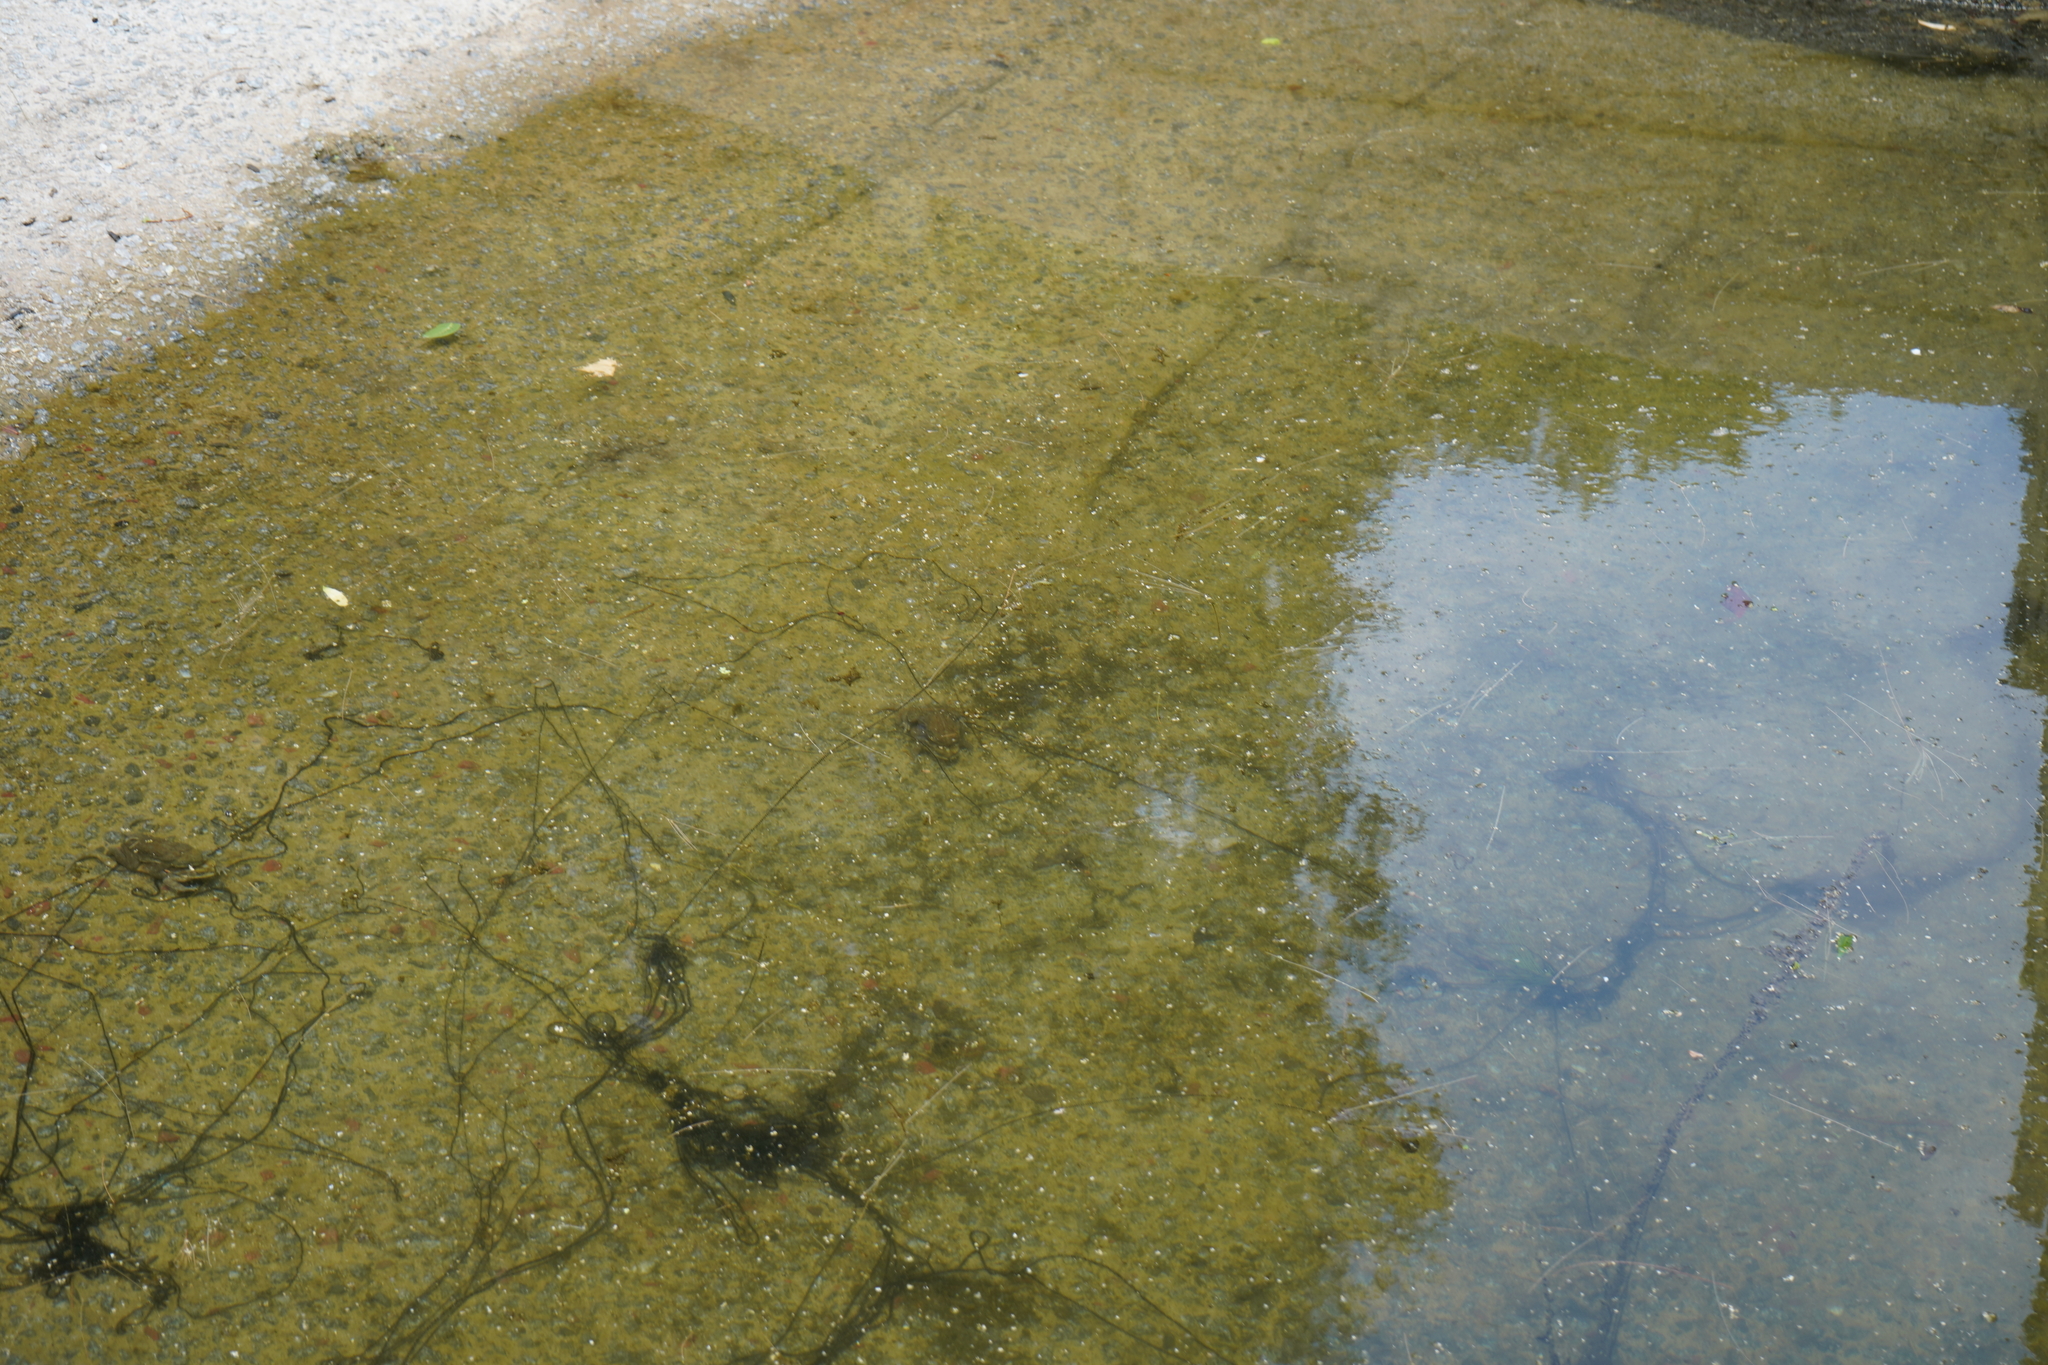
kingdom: Animalia
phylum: Chordata
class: Amphibia
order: Anura
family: Bufonidae
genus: Rhinella
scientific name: Rhinella
